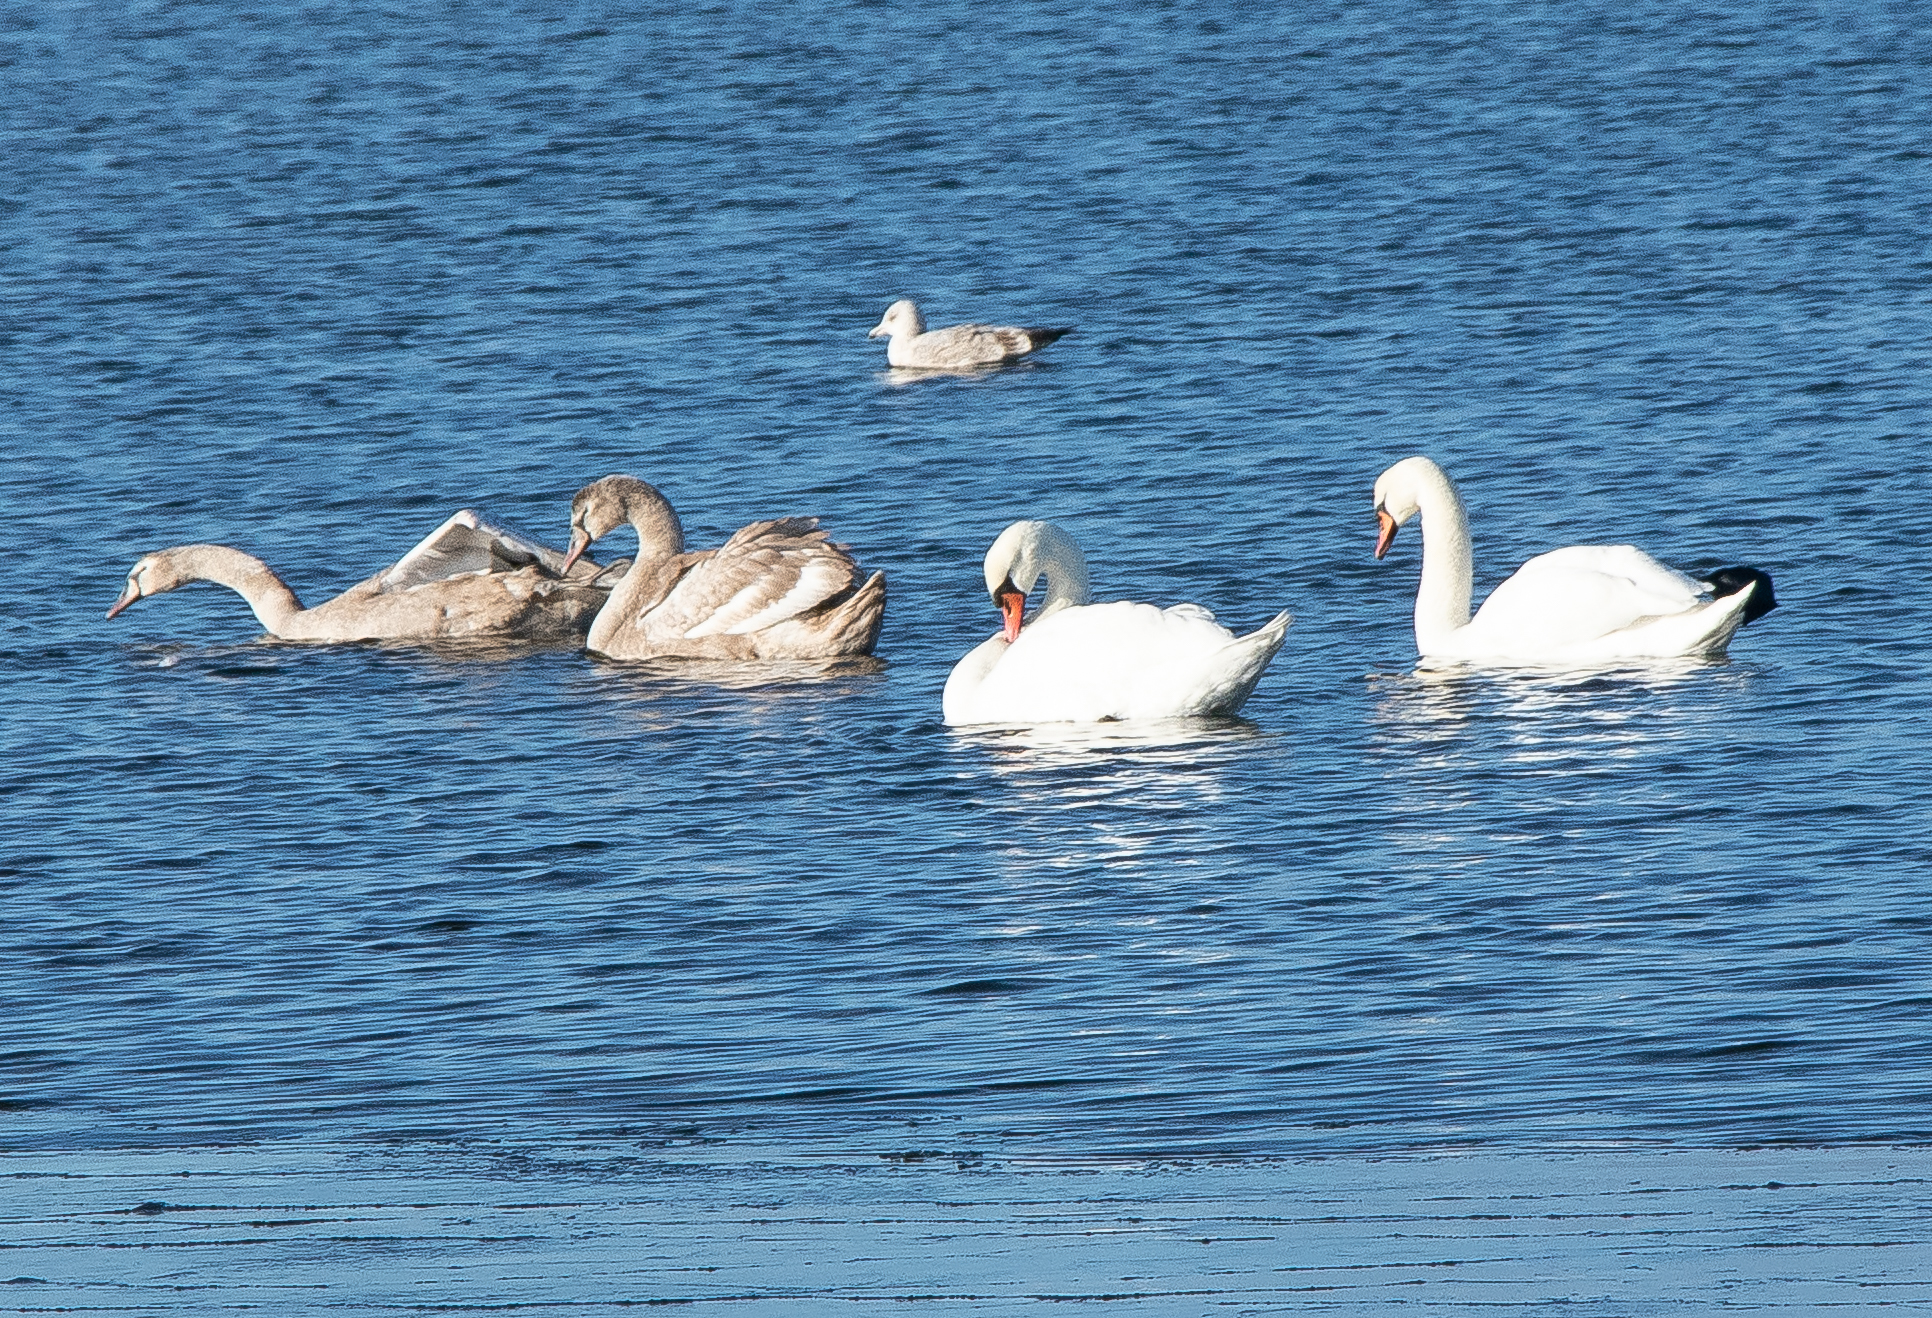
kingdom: Animalia
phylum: Chordata
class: Aves
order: Anseriformes
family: Anatidae
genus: Cygnus
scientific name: Cygnus olor
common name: Mute swan
